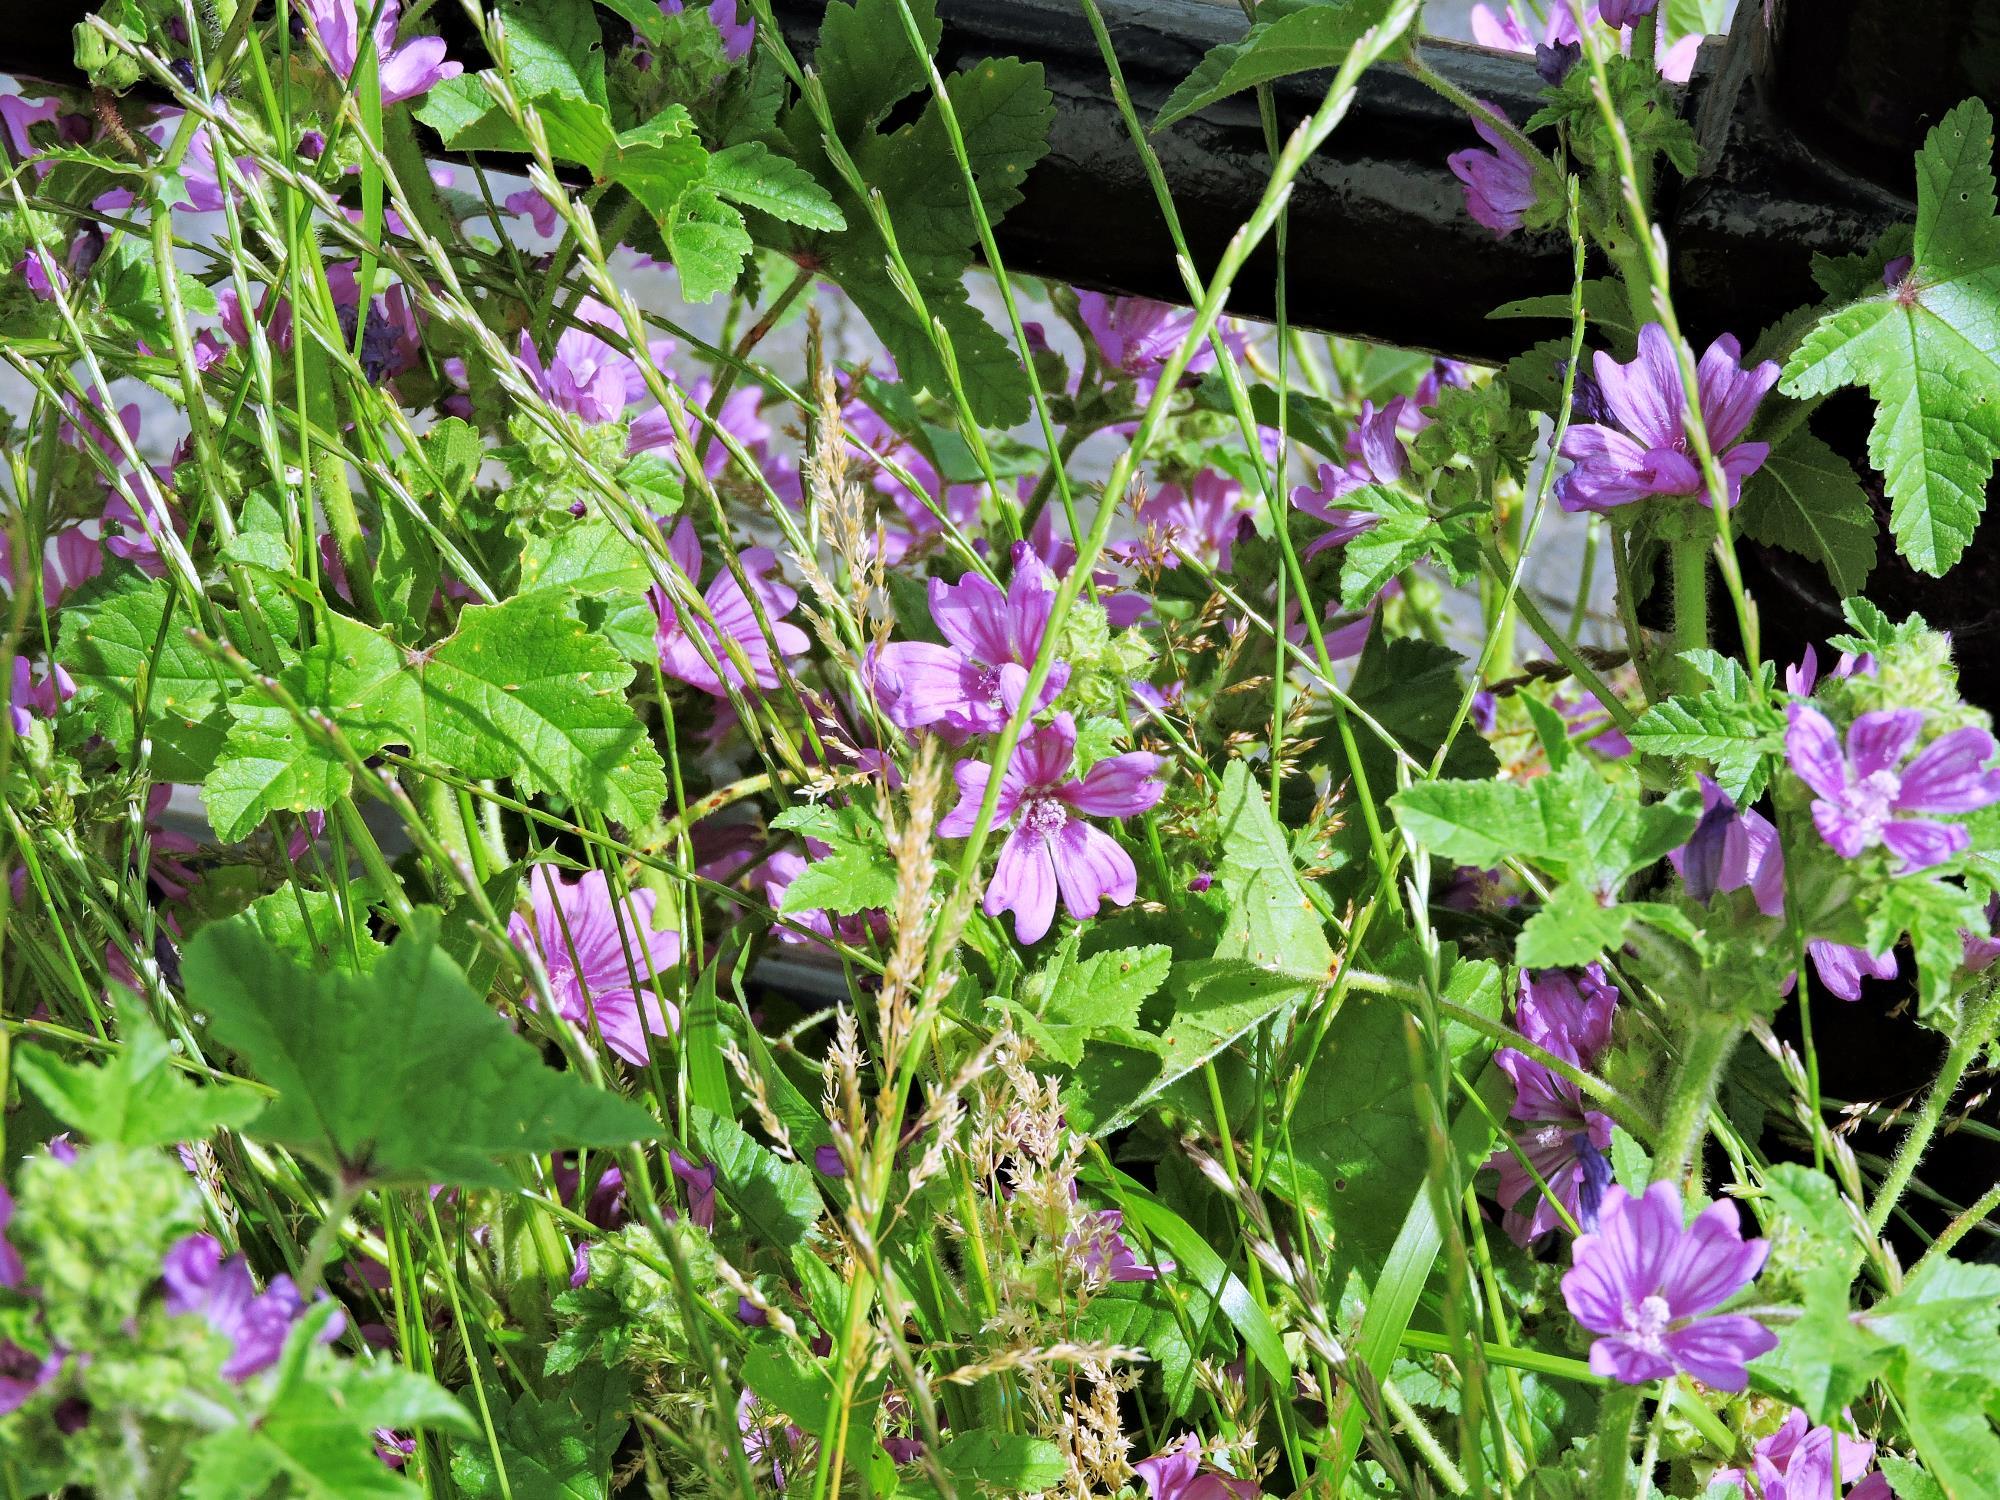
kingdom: Plantae
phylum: Tracheophyta
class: Magnoliopsida
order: Malvales
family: Malvaceae
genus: Malva
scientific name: Malva sylvestris
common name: Common mallow
